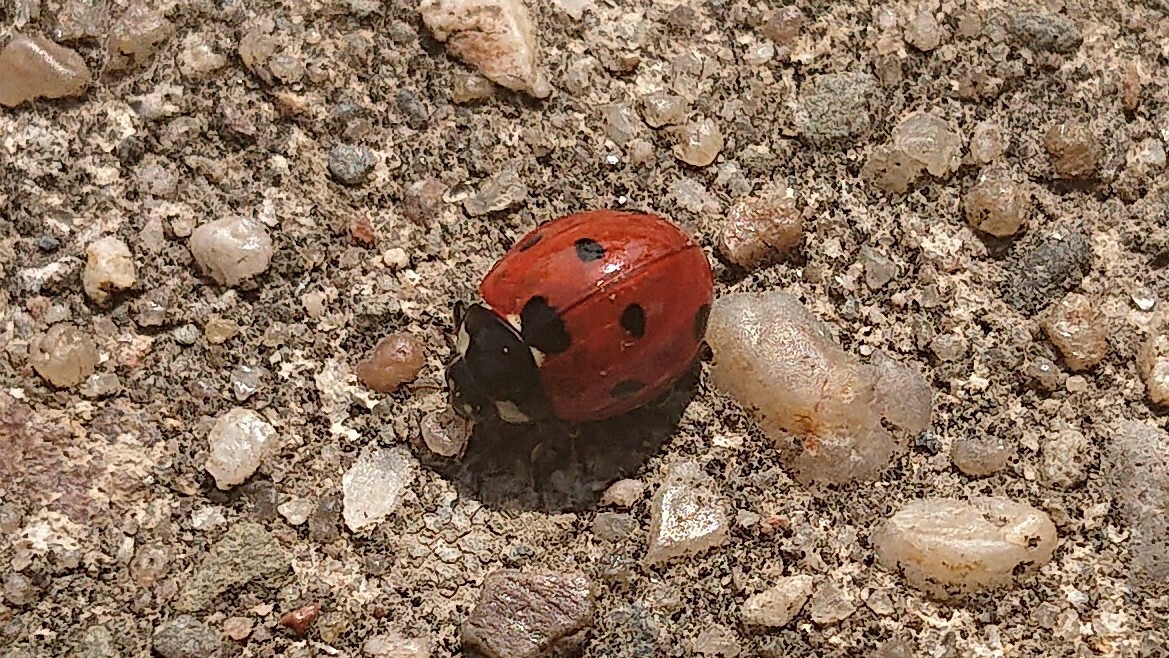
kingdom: Animalia
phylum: Arthropoda
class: Insecta
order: Coleoptera
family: Coccinellidae
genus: Coccinella
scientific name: Coccinella septempunctata
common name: Sevenspotted lady beetle
